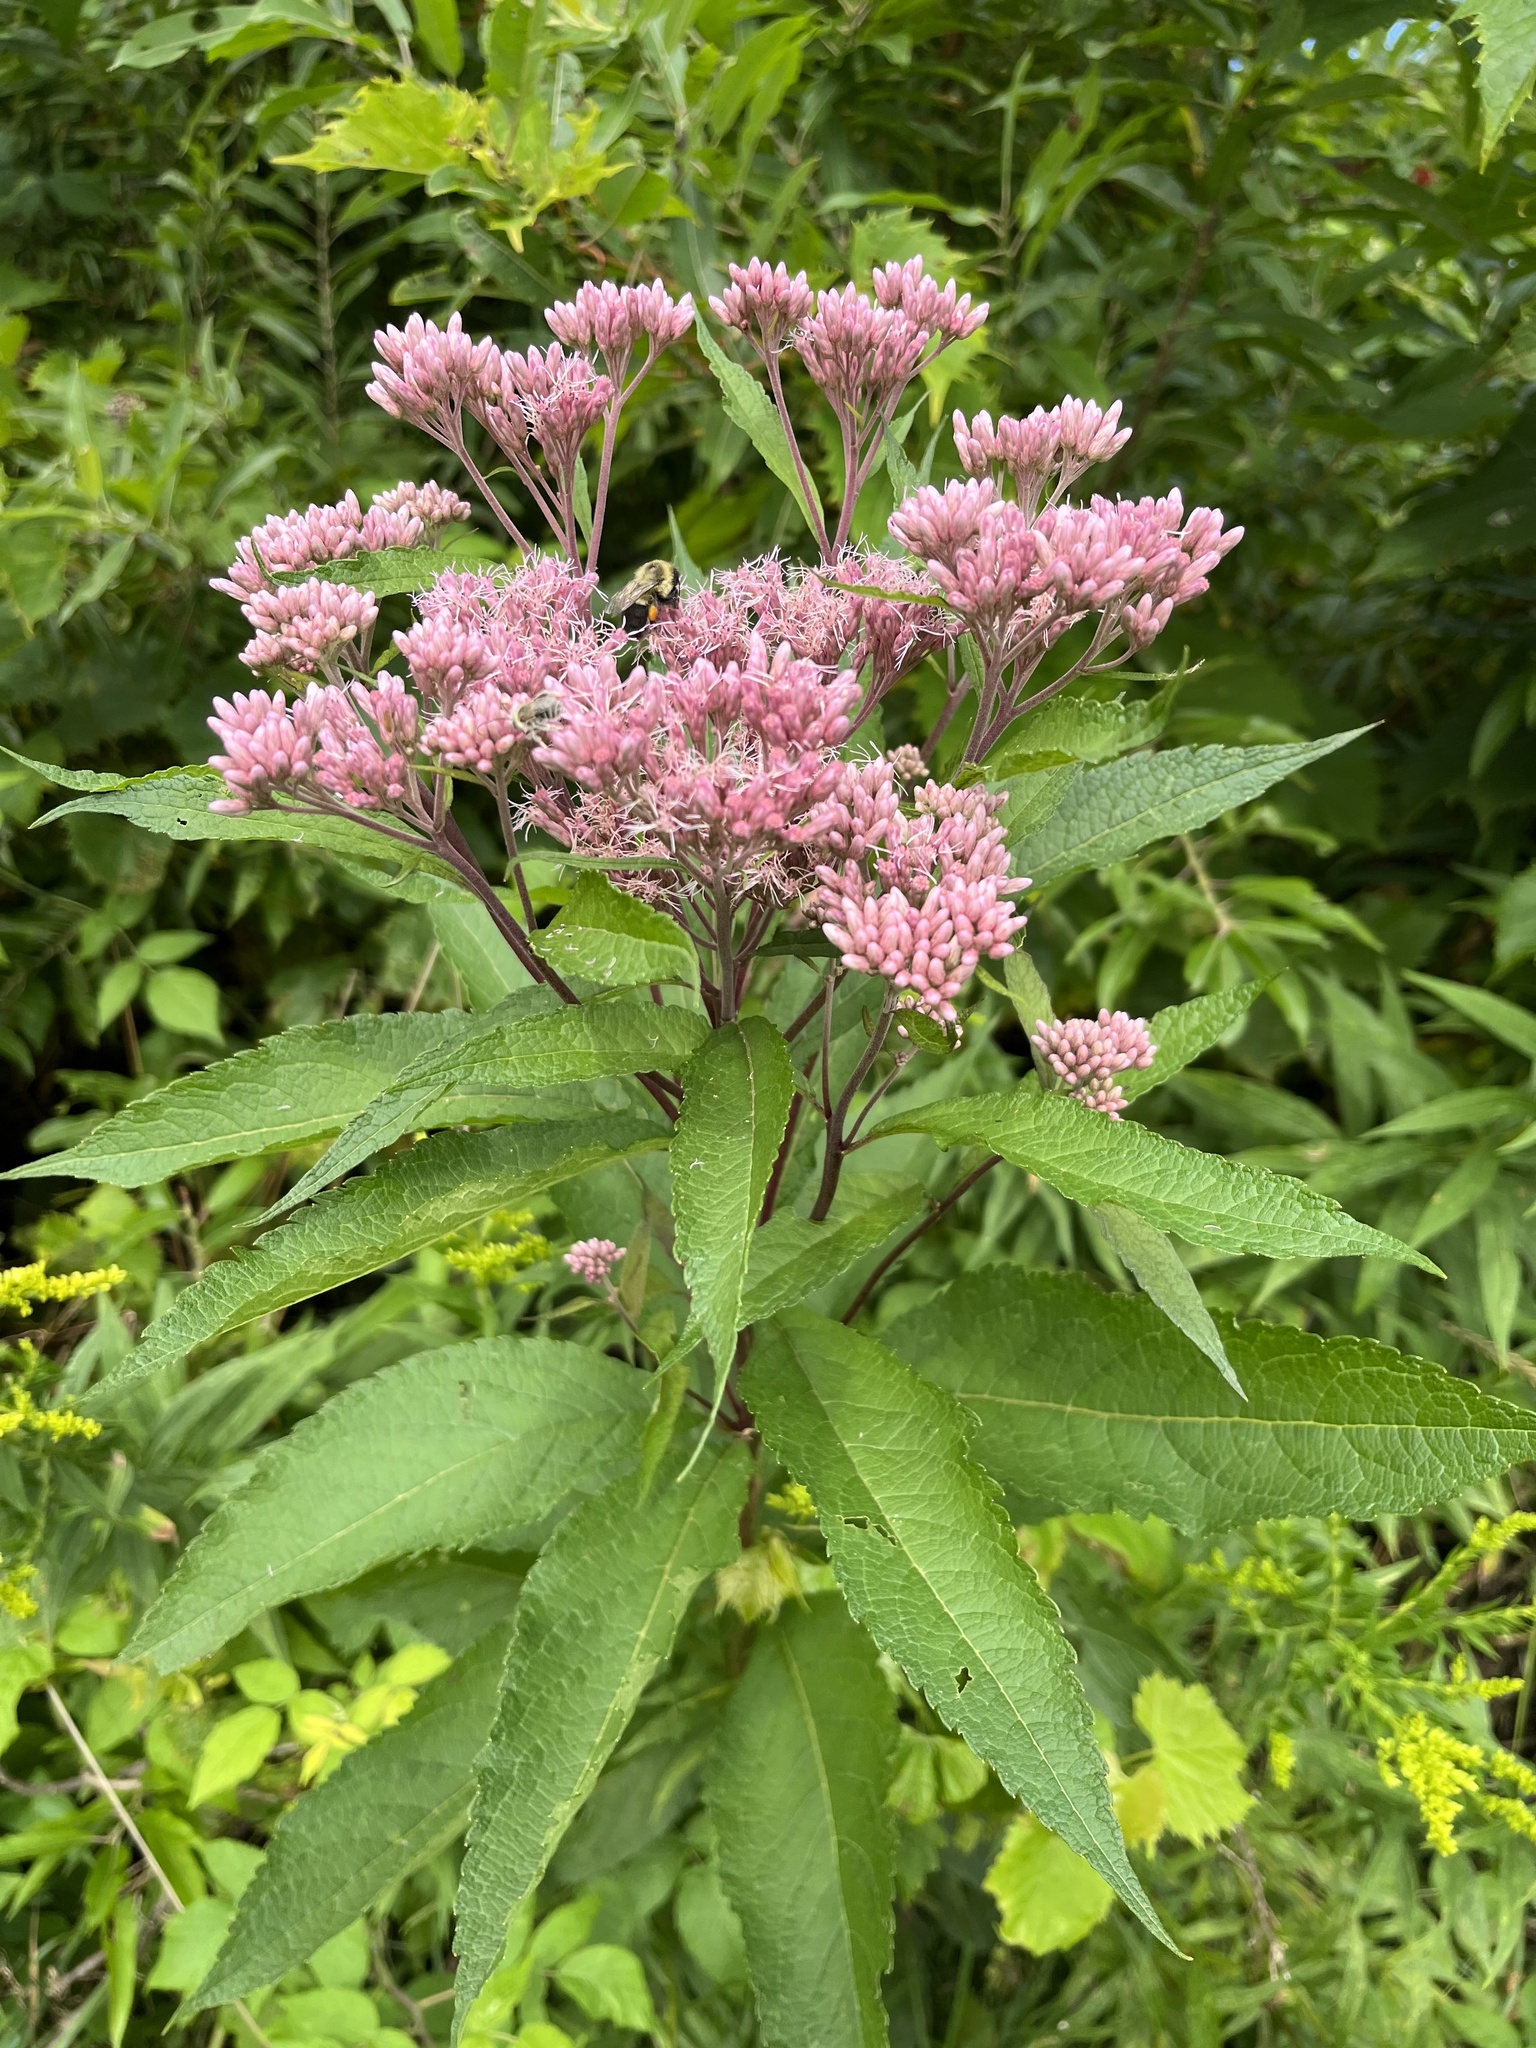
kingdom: Plantae
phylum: Tracheophyta
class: Magnoliopsida
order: Asterales
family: Asteraceae
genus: Eutrochium
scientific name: Eutrochium maculatum
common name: Spotted joe pye weed
